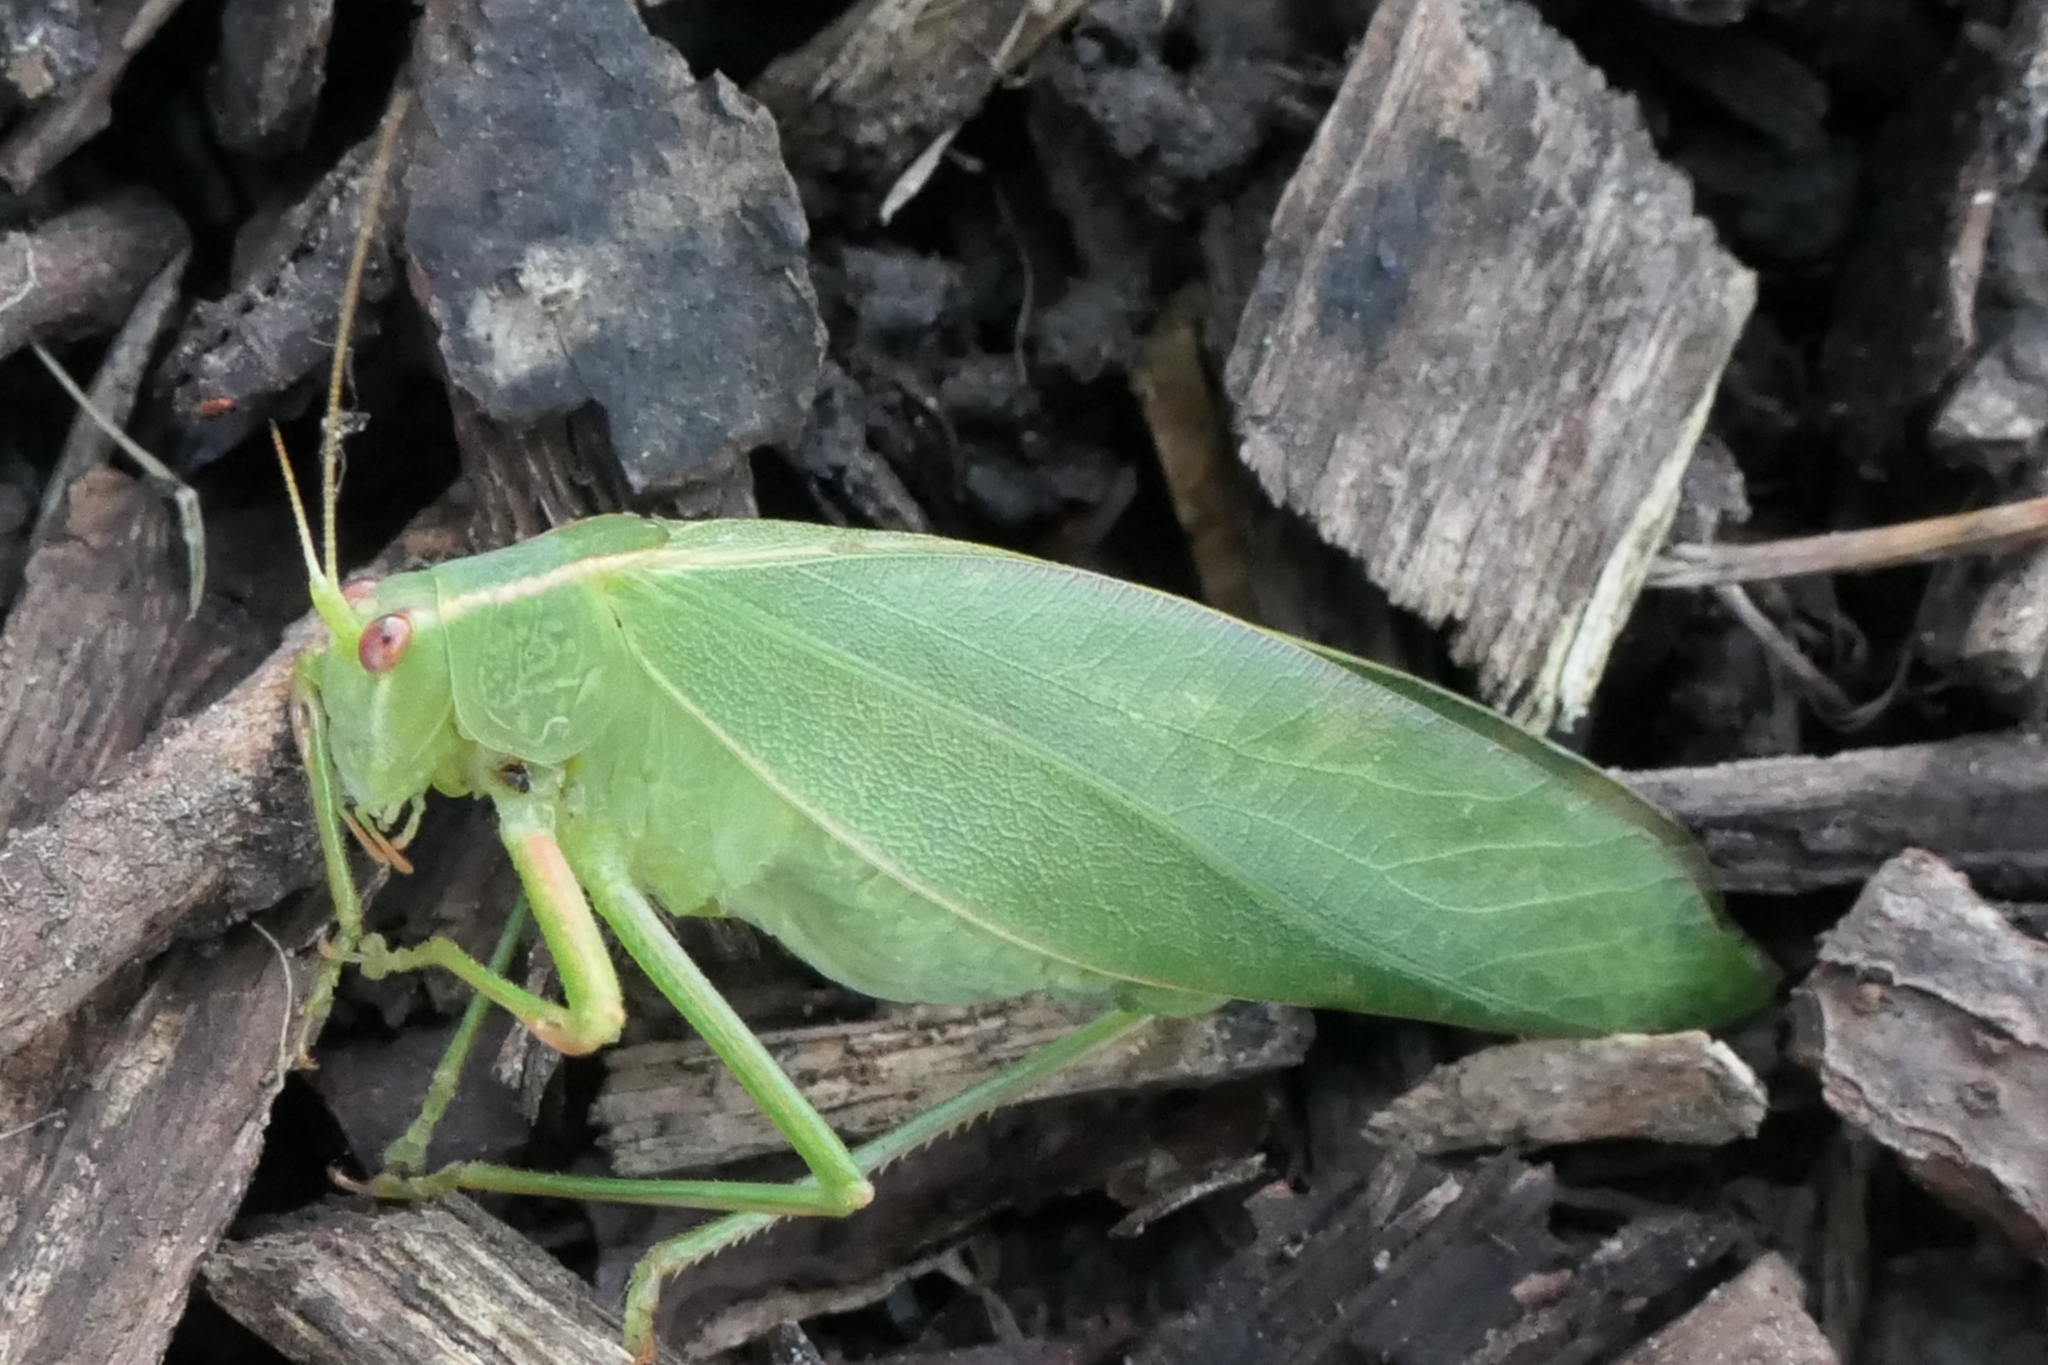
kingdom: Animalia
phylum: Arthropoda
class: Insecta
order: Orthoptera
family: Tettigoniidae
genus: Caedicia
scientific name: Caedicia simplex
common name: Common garden katydid
